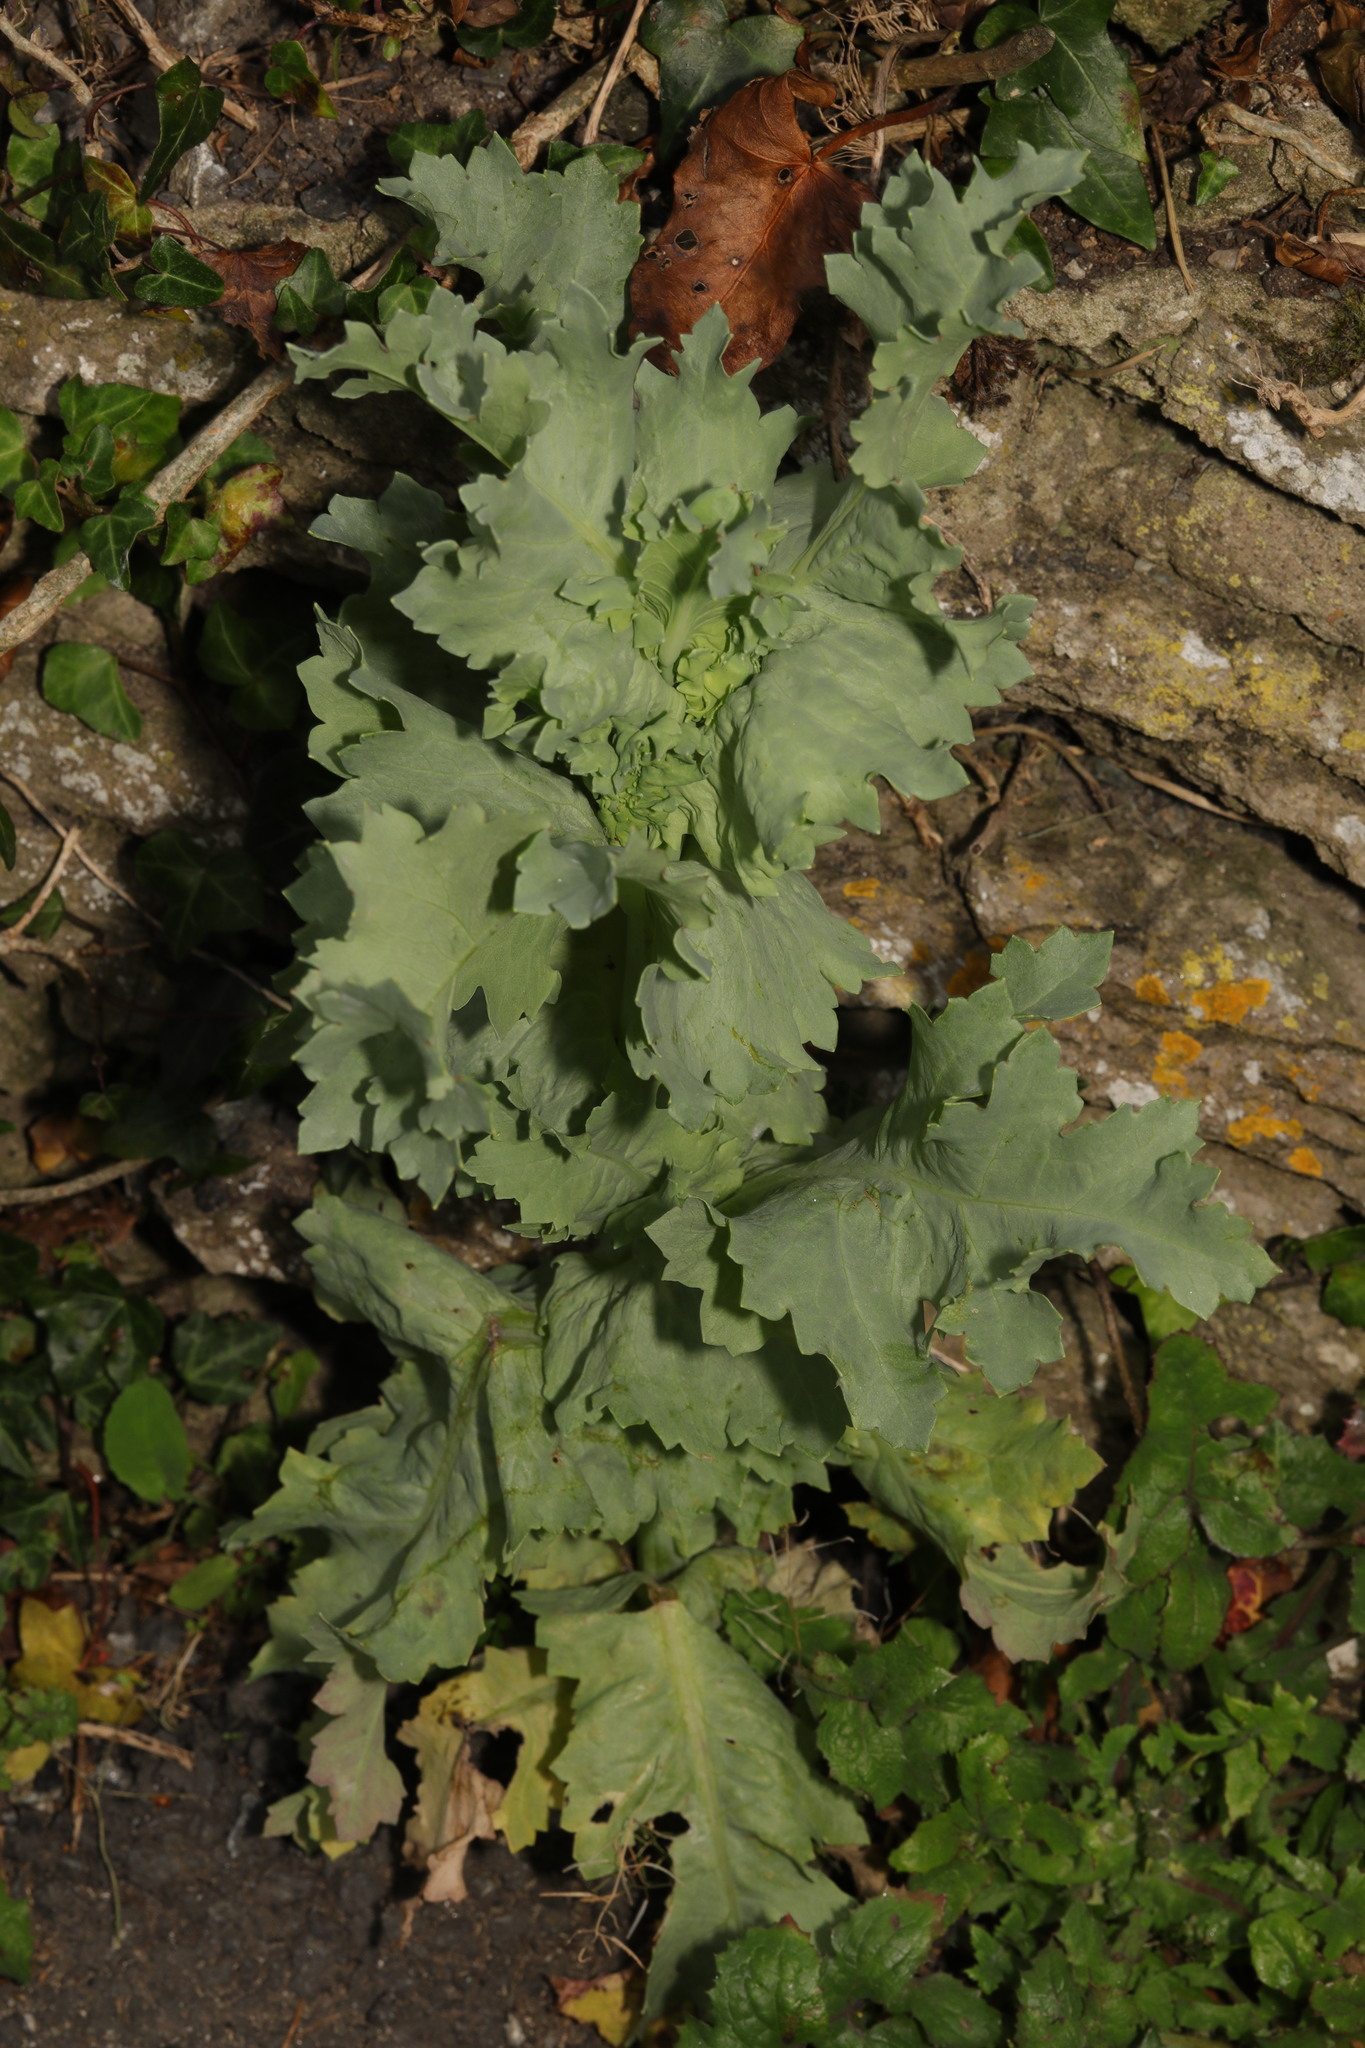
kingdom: Plantae
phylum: Tracheophyta
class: Magnoliopsida
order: Ranunculales
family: Papaveraceae
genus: Papaver
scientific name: Papaver somniferum
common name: Opium poppy
